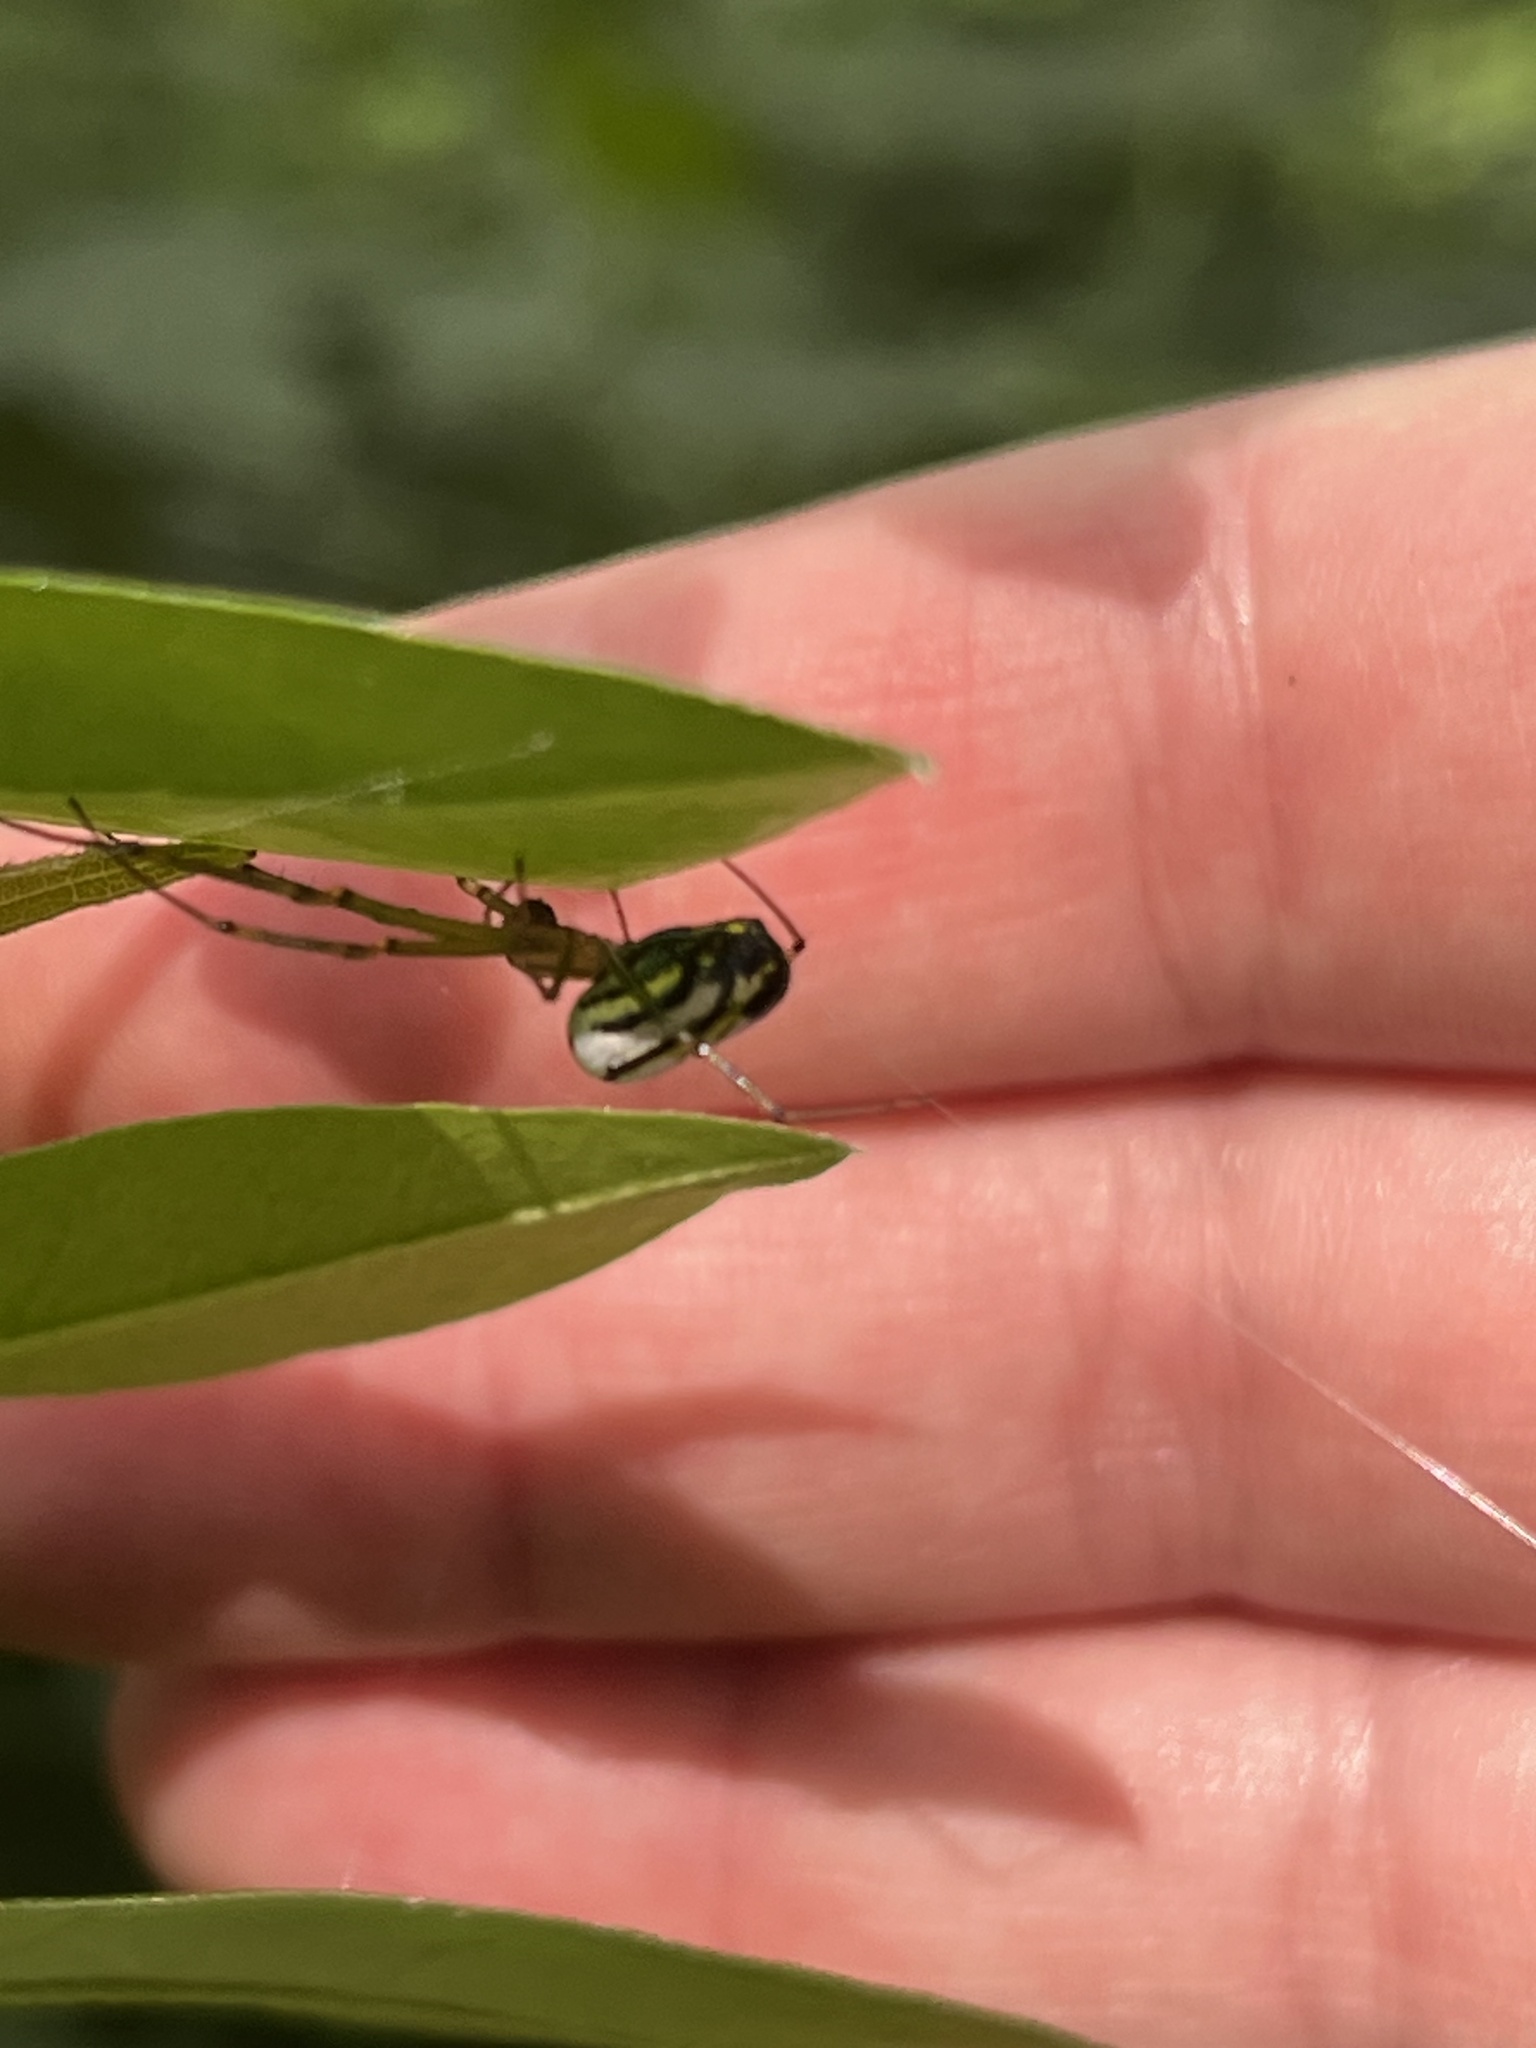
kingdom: Animalia
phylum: Arthropoda
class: Arachnida
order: Araneae
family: Tetragnathidae
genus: Leucauge
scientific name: Leucauge venusta
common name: Longjawed orb weavers
